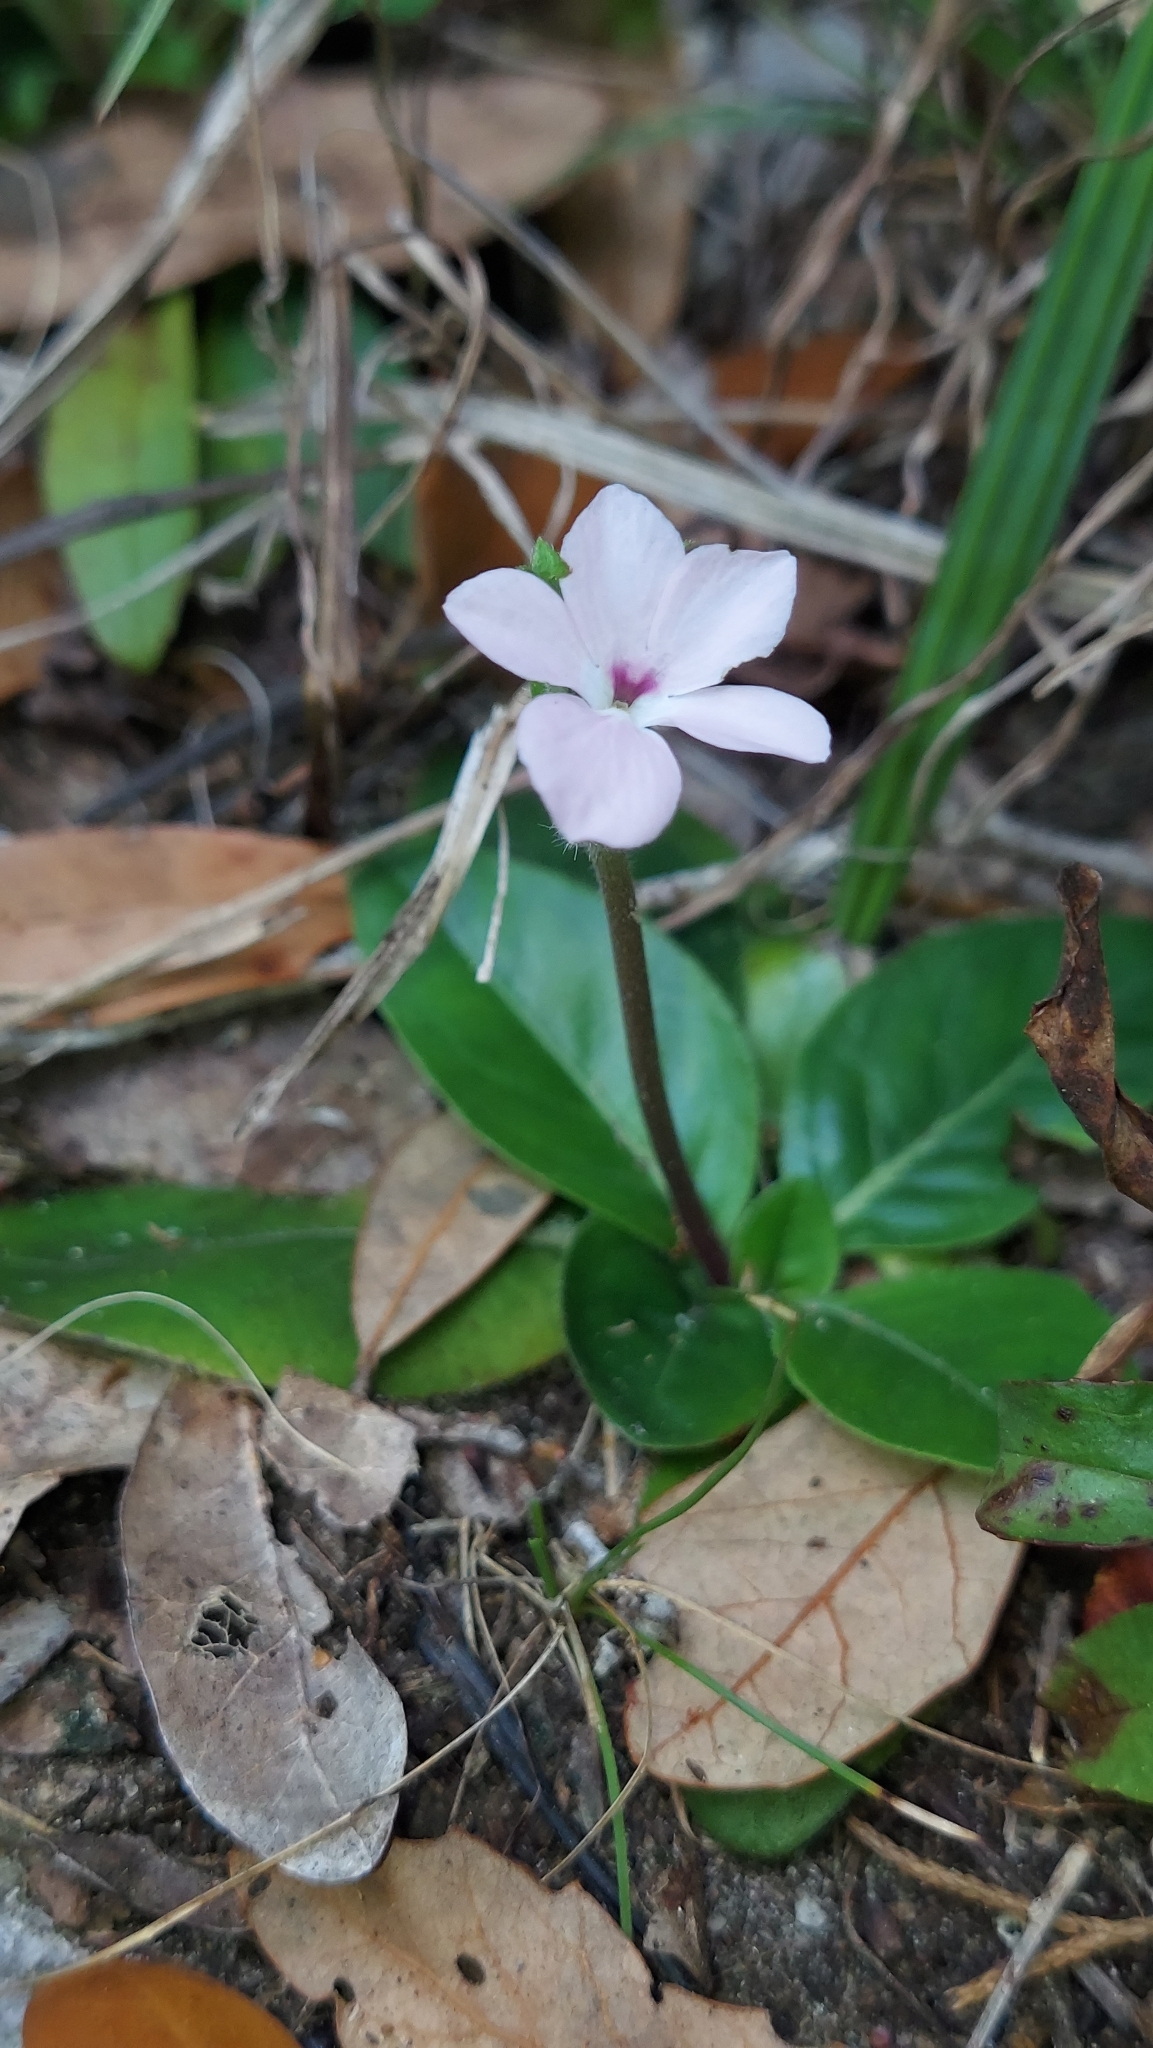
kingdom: Plantae
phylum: Tracheophyta
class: Magnoliopsida
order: Lamiales
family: Acanthaceae
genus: Stenandrium
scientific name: Stenandrium dulce
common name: Pinklet
